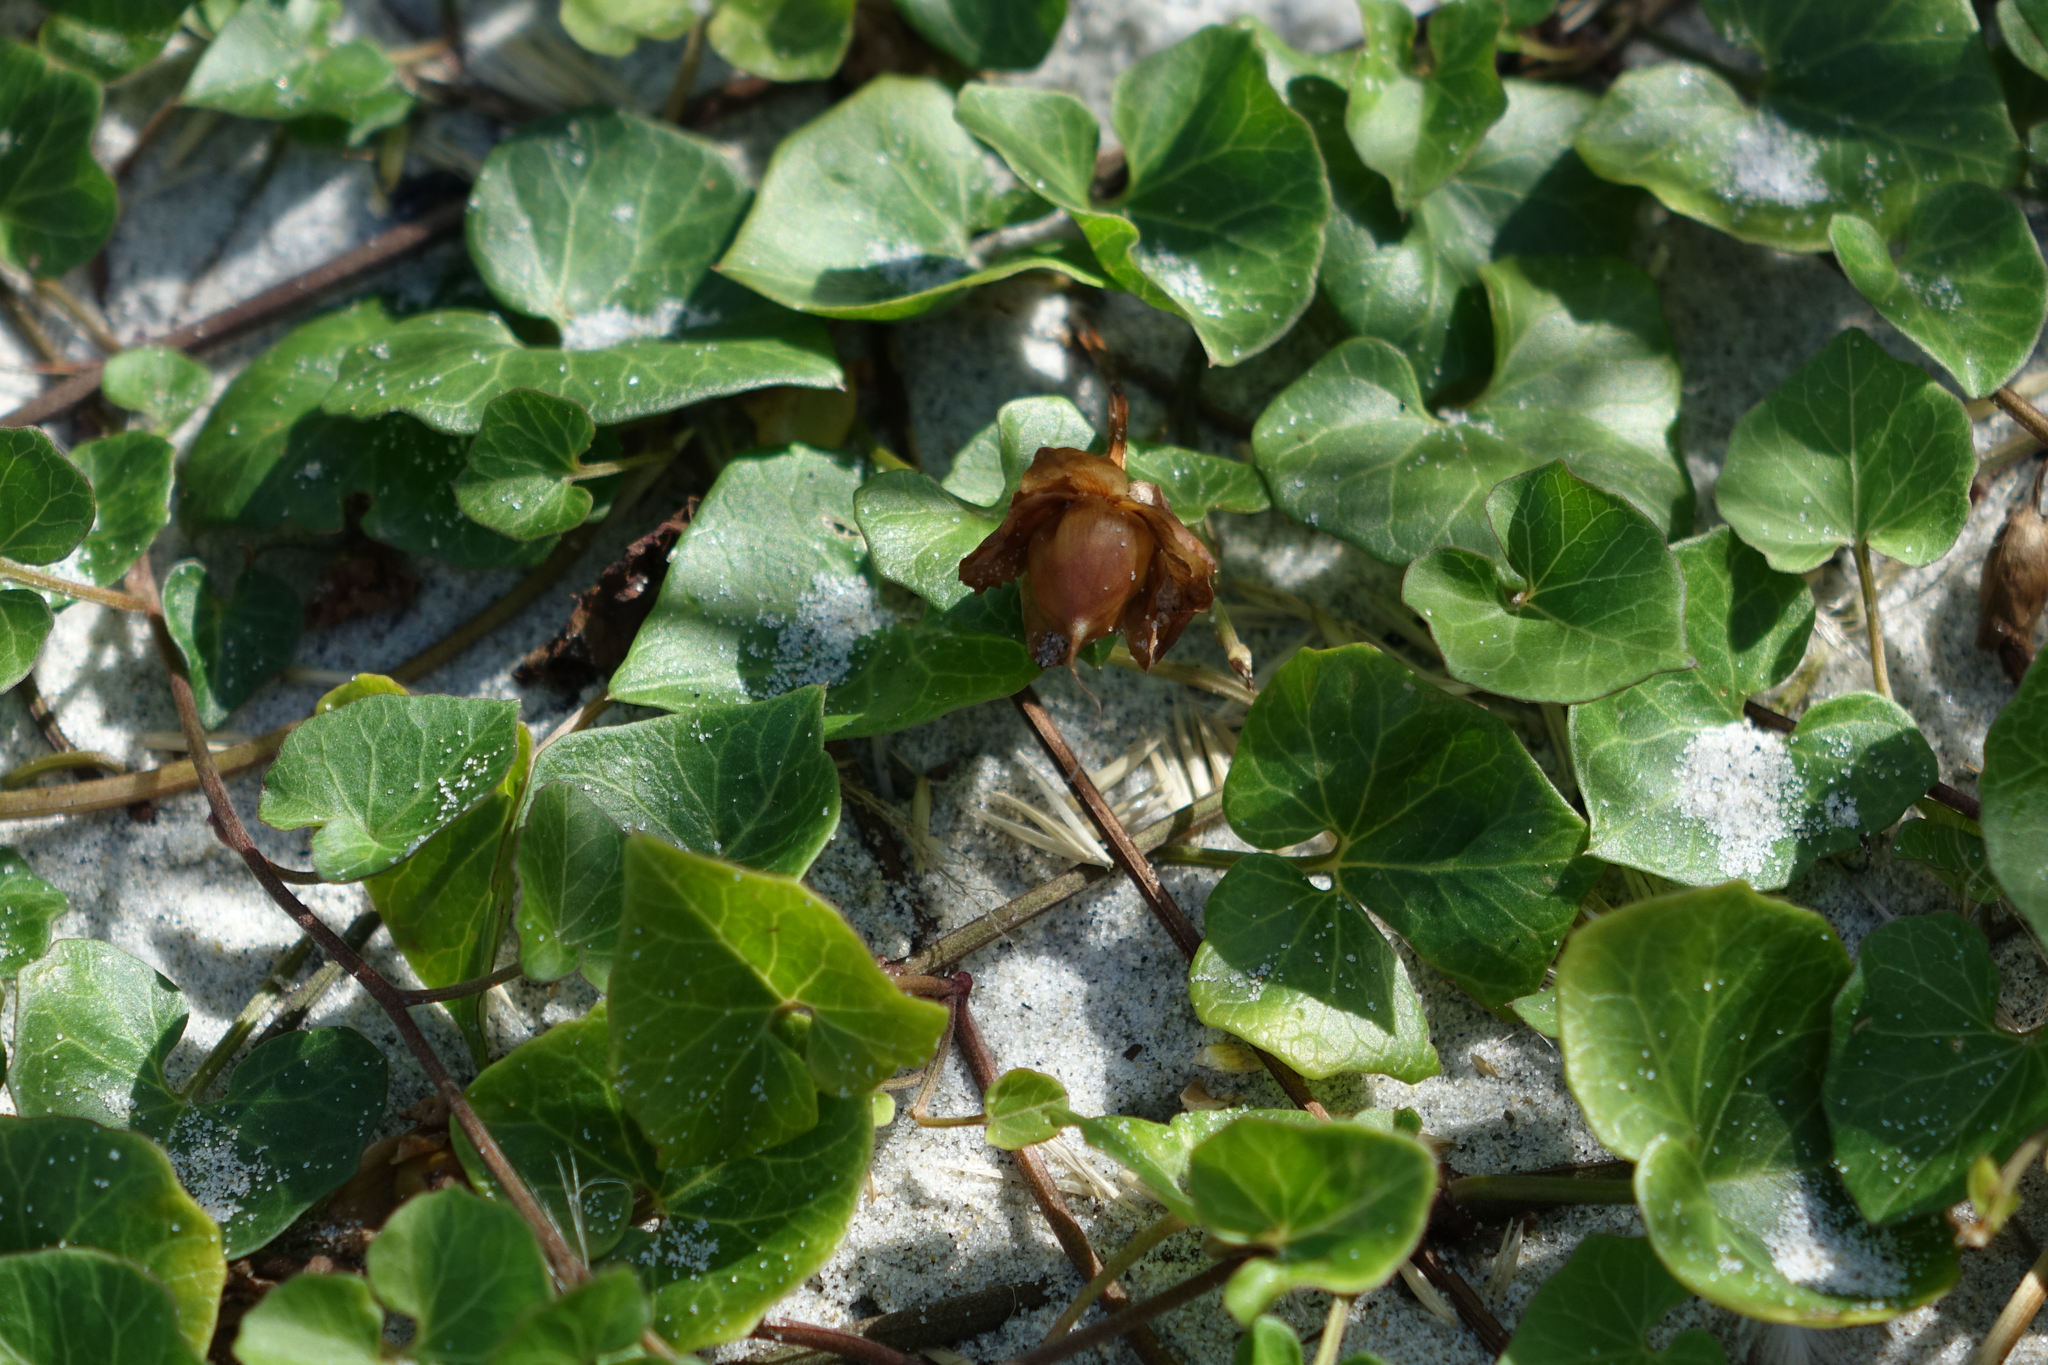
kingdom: Plantae
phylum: Tracheophyta
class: Magnoliopsida
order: Solanales
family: Convolvulaceae
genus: Calystegia
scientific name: Calystegia soldanella
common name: Sea bindweed
